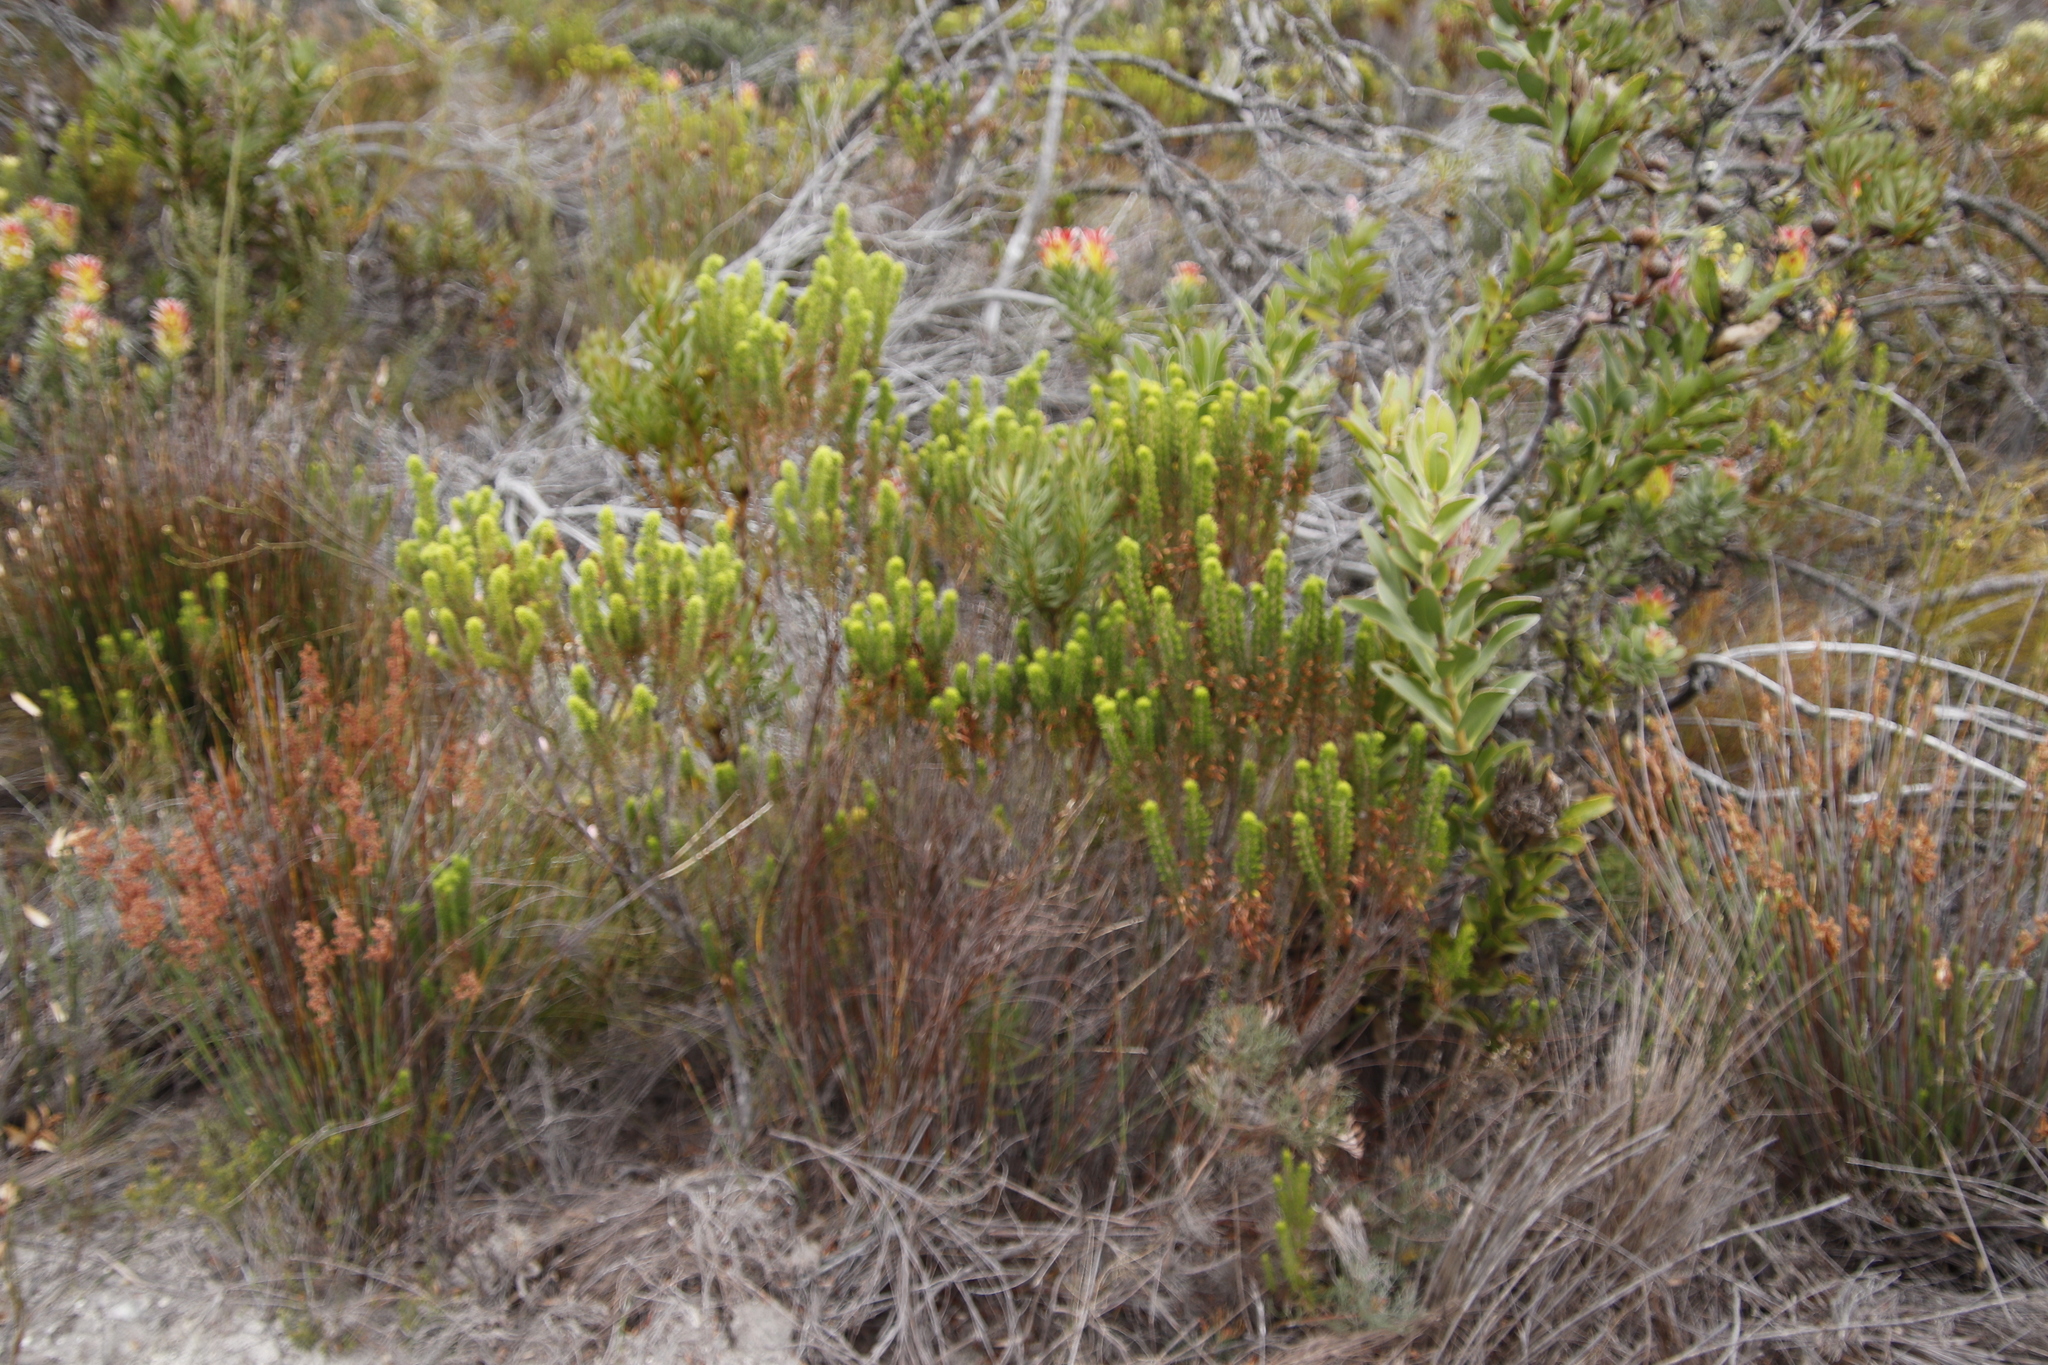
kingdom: Plantae
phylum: Tracheophyta
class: Magnoliopsida
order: Ericales
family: Ericaceae
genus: Erica
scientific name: Erica coccinea
